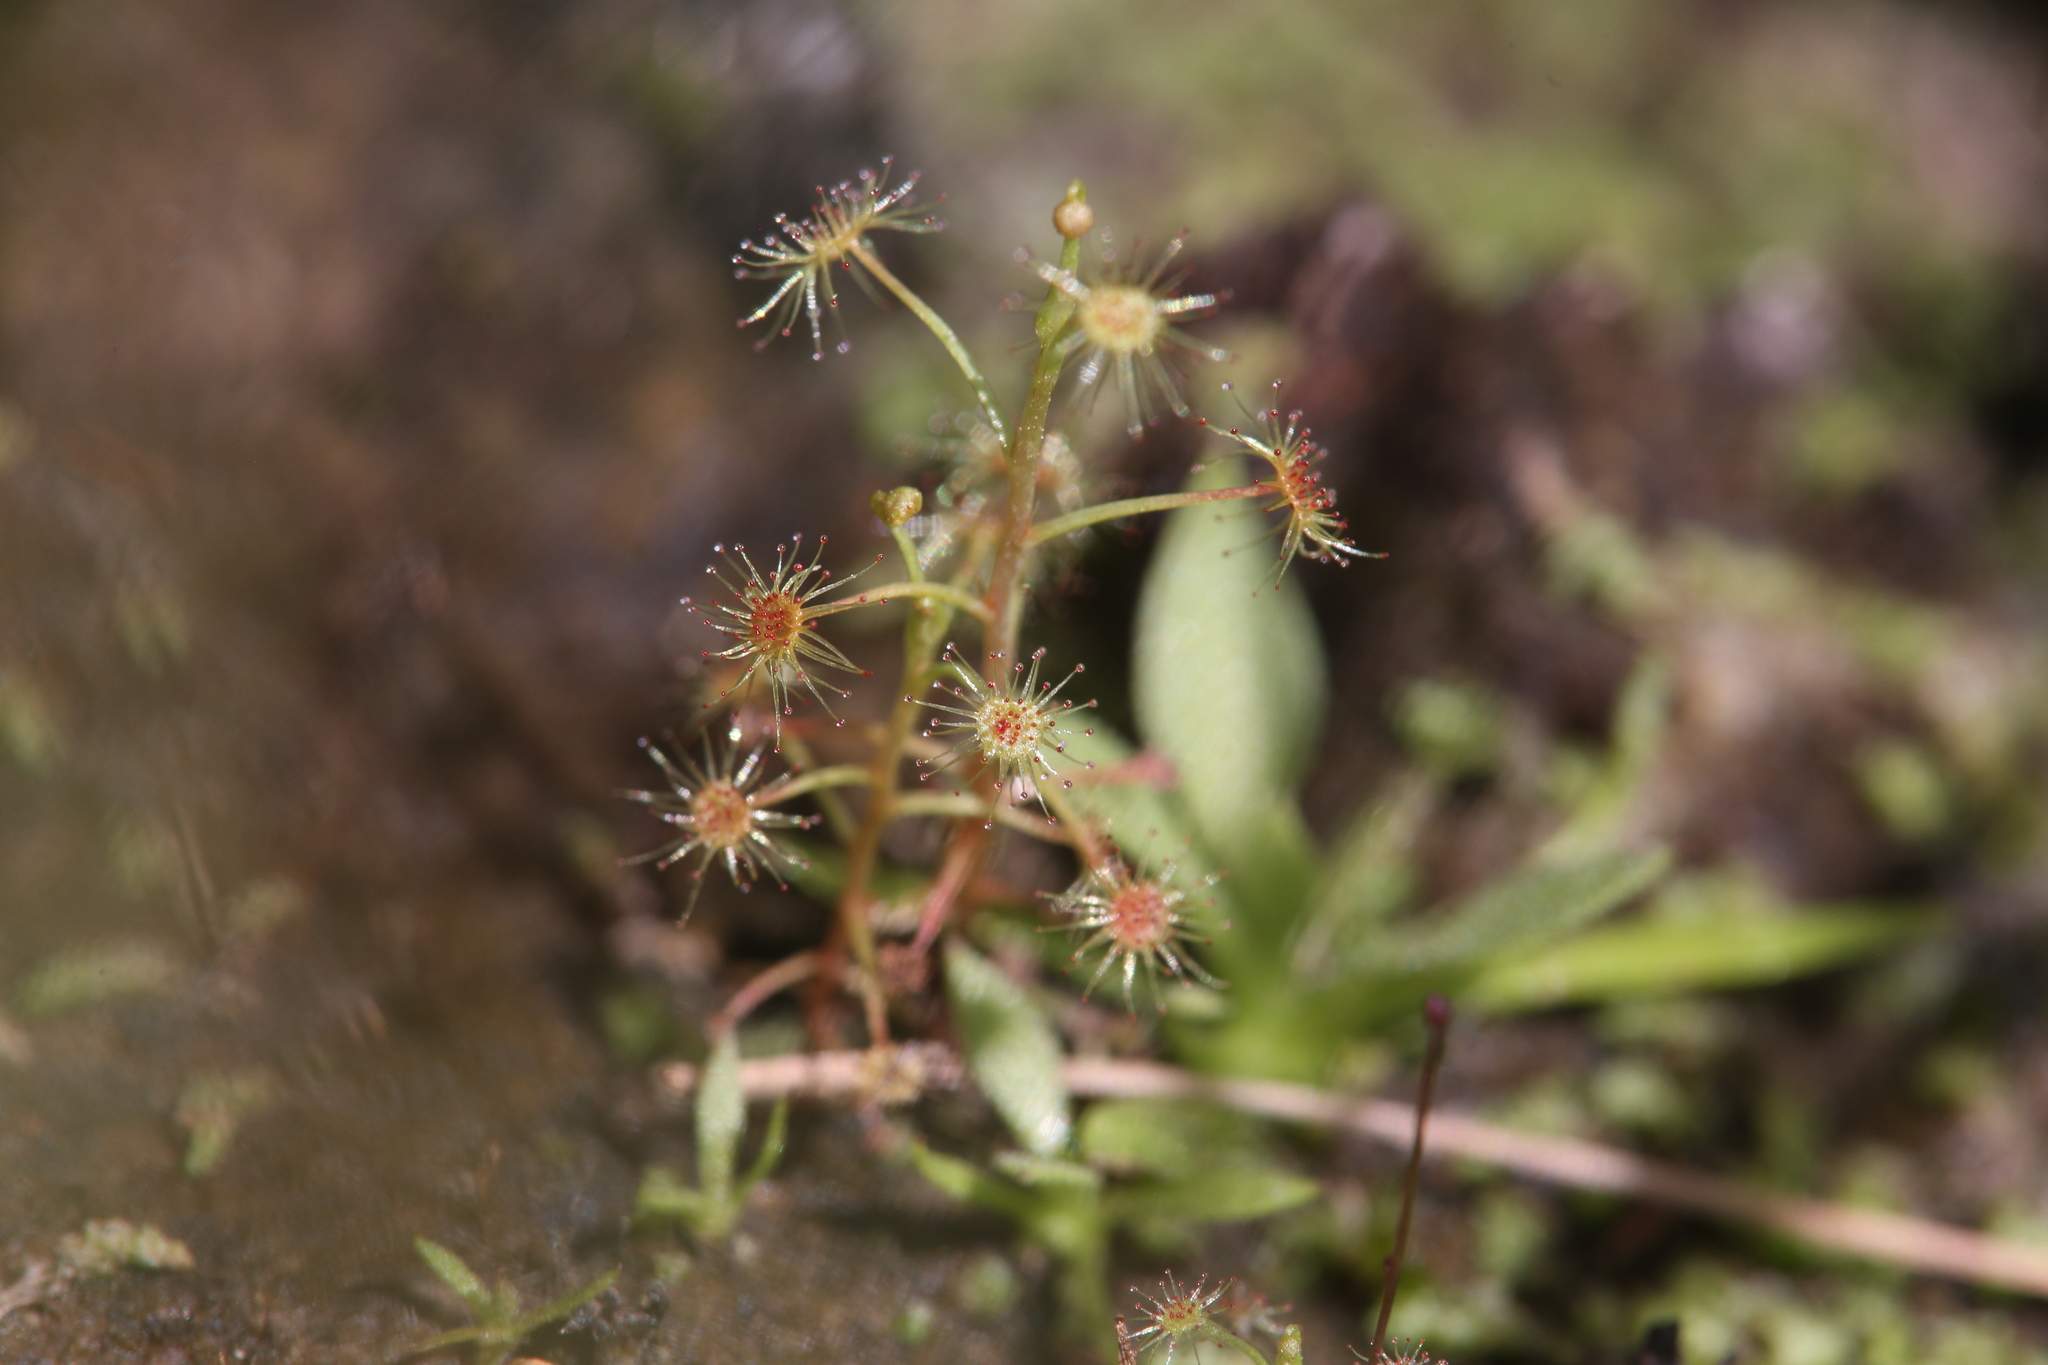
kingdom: Plantae
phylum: Tracheophyta
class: Magnoliopsida
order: Caryophyllales
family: Droseraceae
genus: Drosera
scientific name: Drosera banksii
